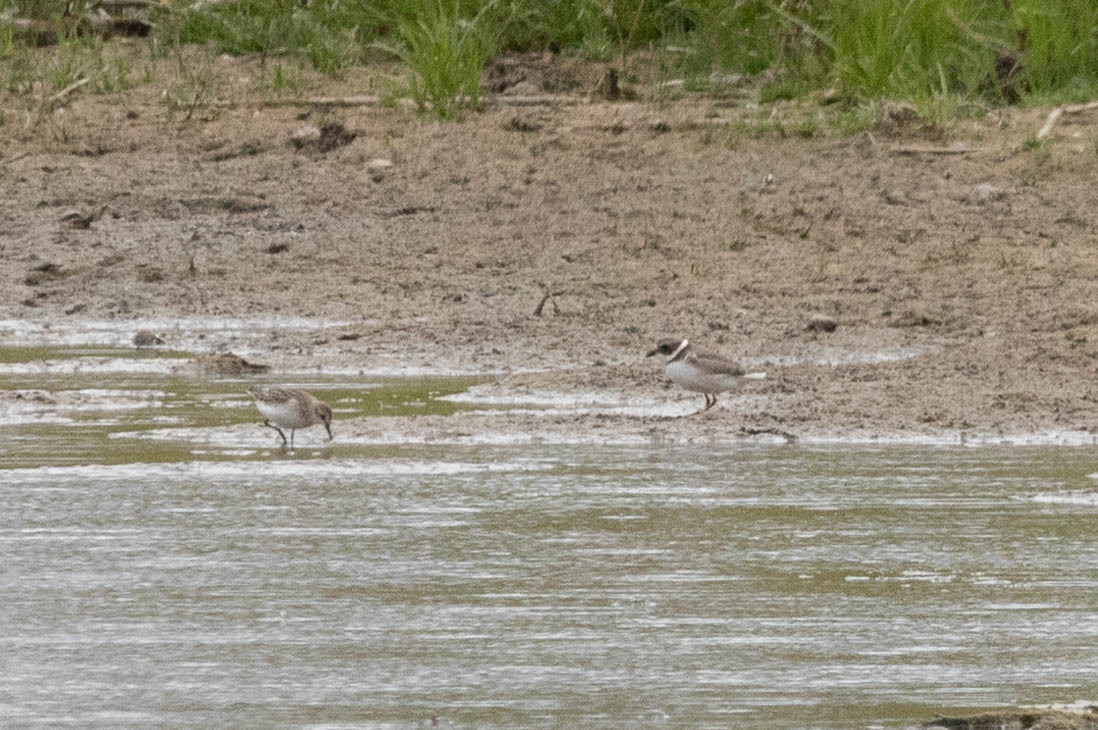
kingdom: Animalia
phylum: Chordata
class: Aves
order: Charadriiformes
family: Charadriidae
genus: Charadrius
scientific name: Charadrius semipalmatus
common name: Semipalmated plover
